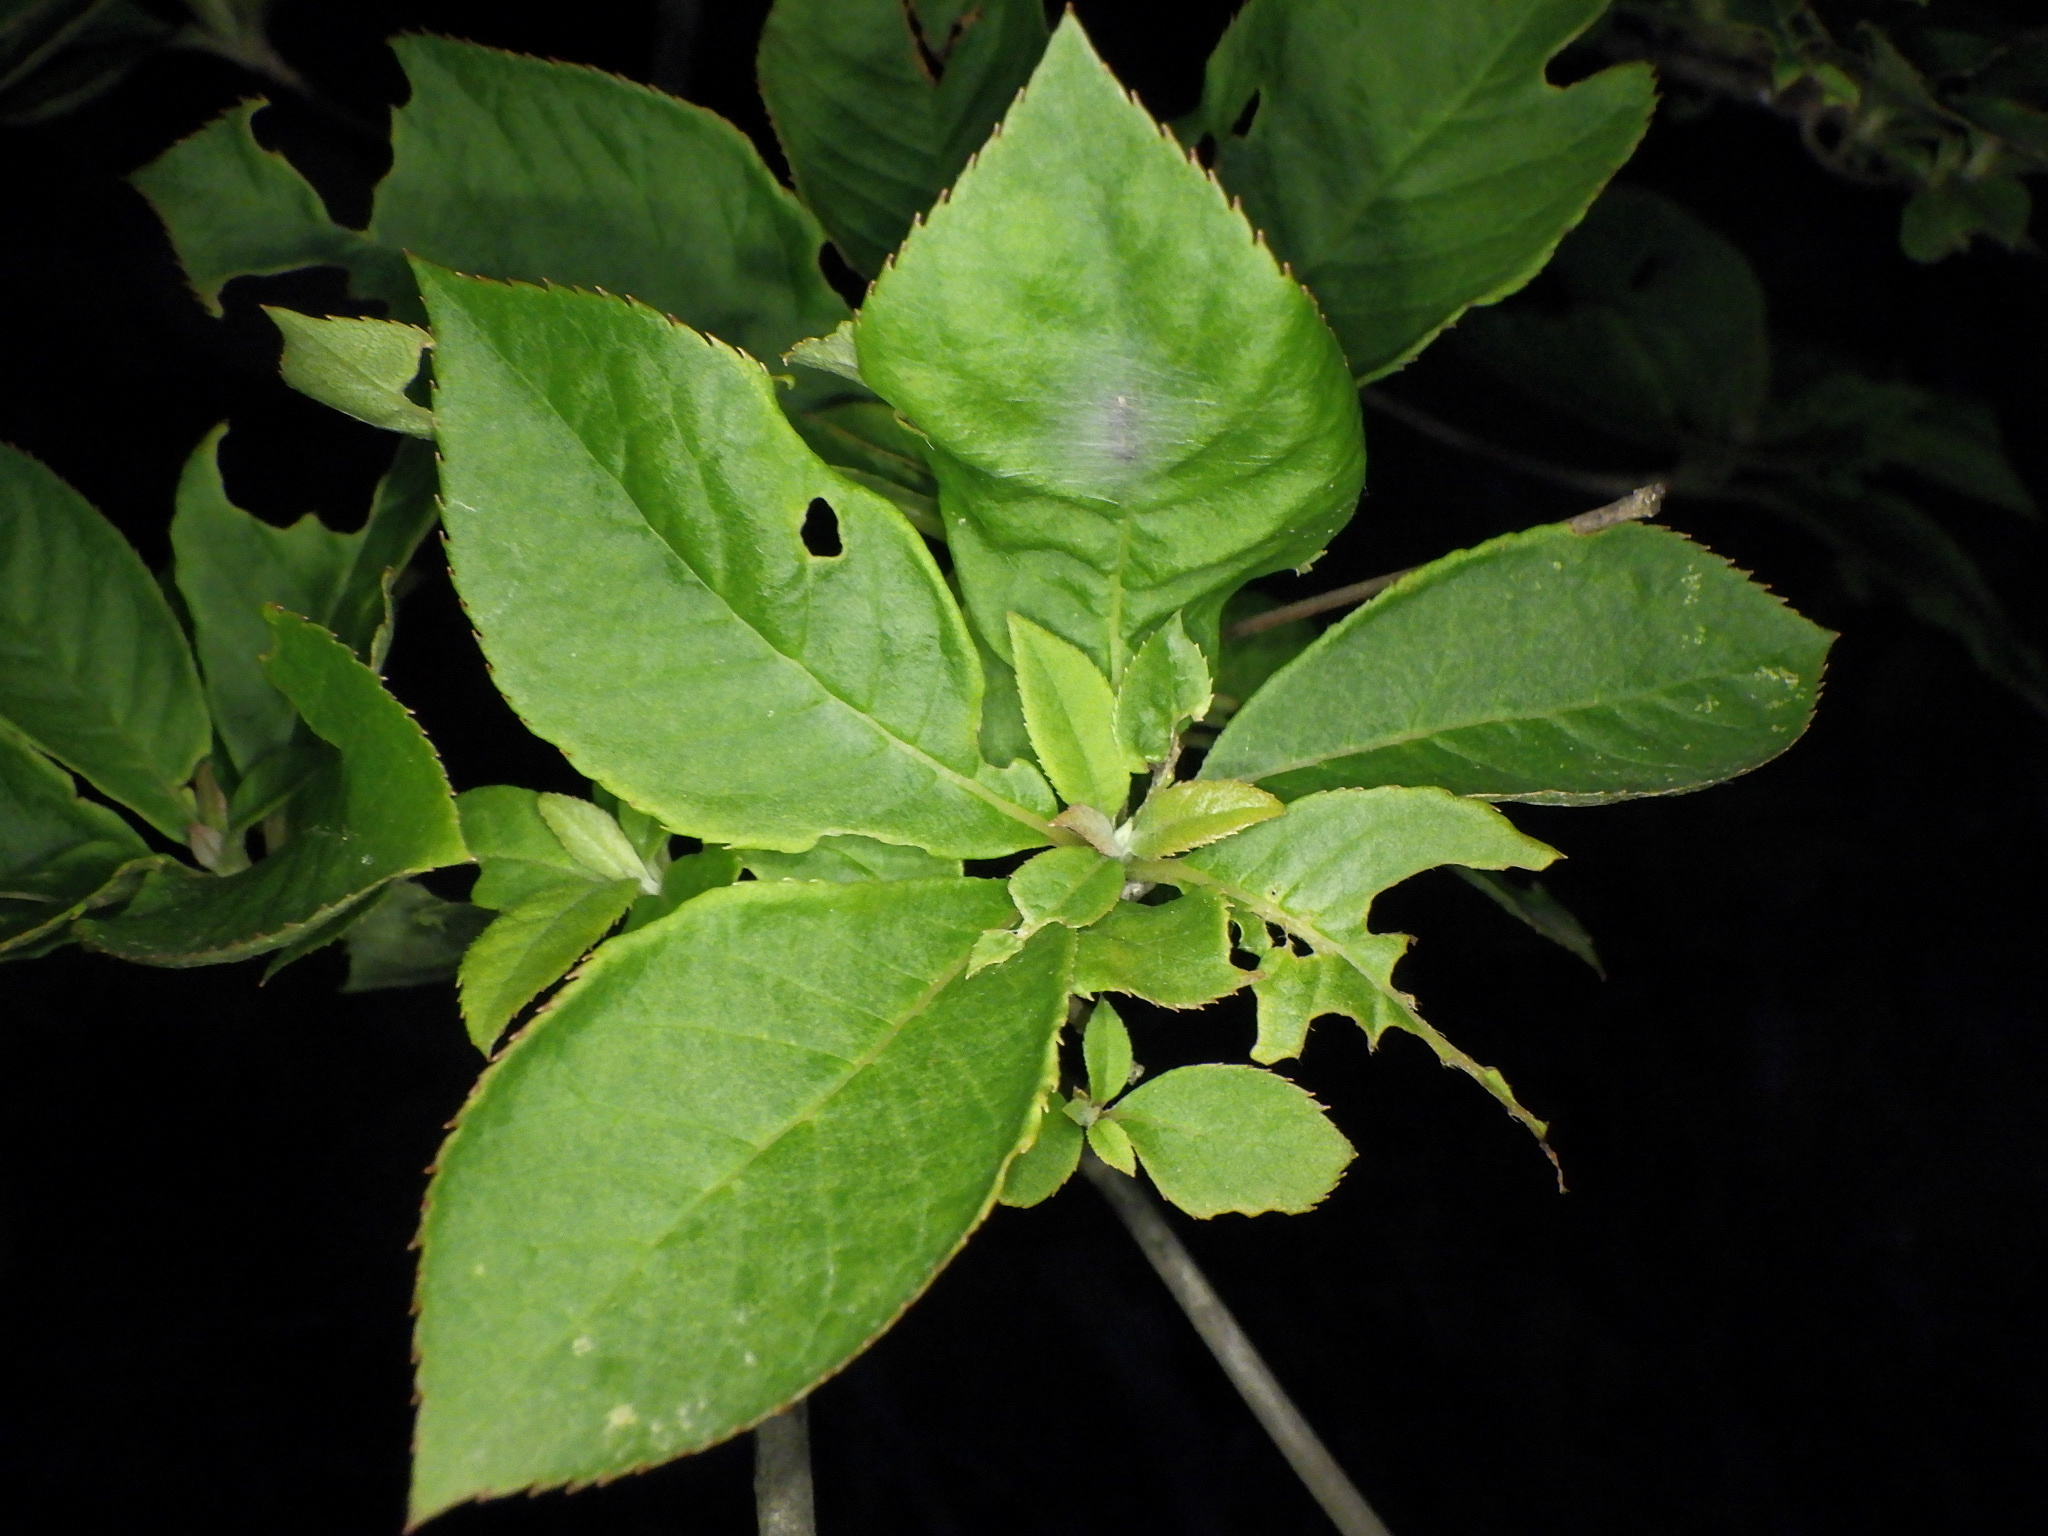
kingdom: Plantae
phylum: Tracheophyta
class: Magnoliopsida
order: Ericales
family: Clethraceae
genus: Clethra
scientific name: Clethra barbinervis
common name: Japanese clethra
